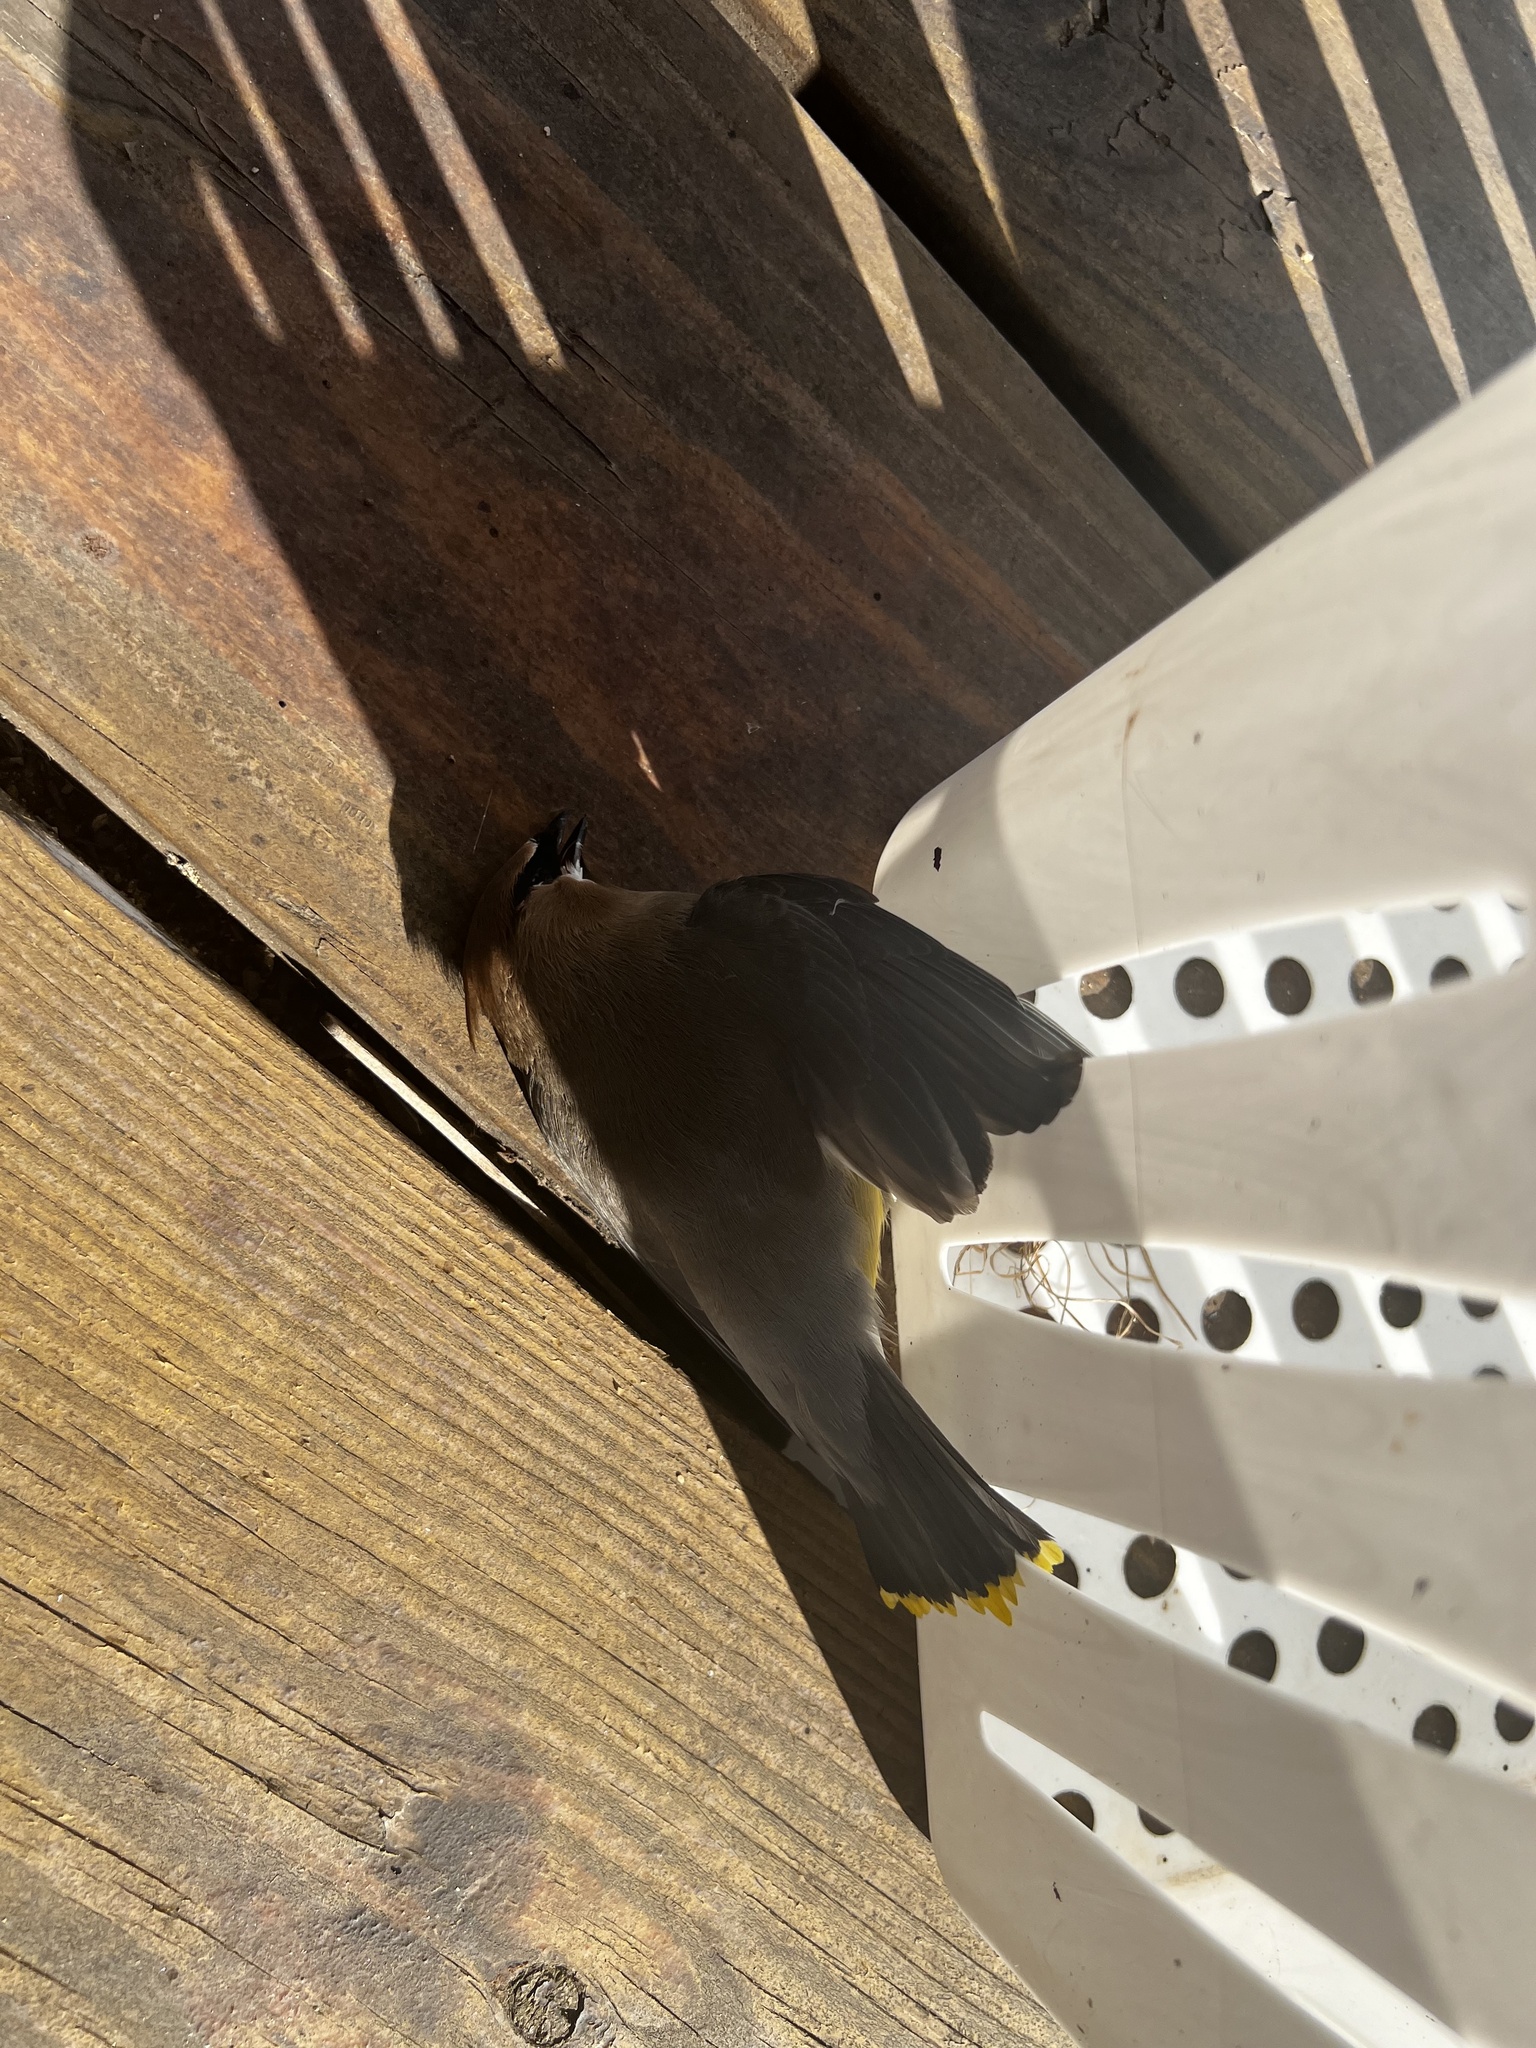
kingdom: Animalia
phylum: Chordata
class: Aves
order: Passeriformes
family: Bombycillidae
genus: Bombycilla
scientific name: Bombycilla cedrorum
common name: Cedar waxwing
